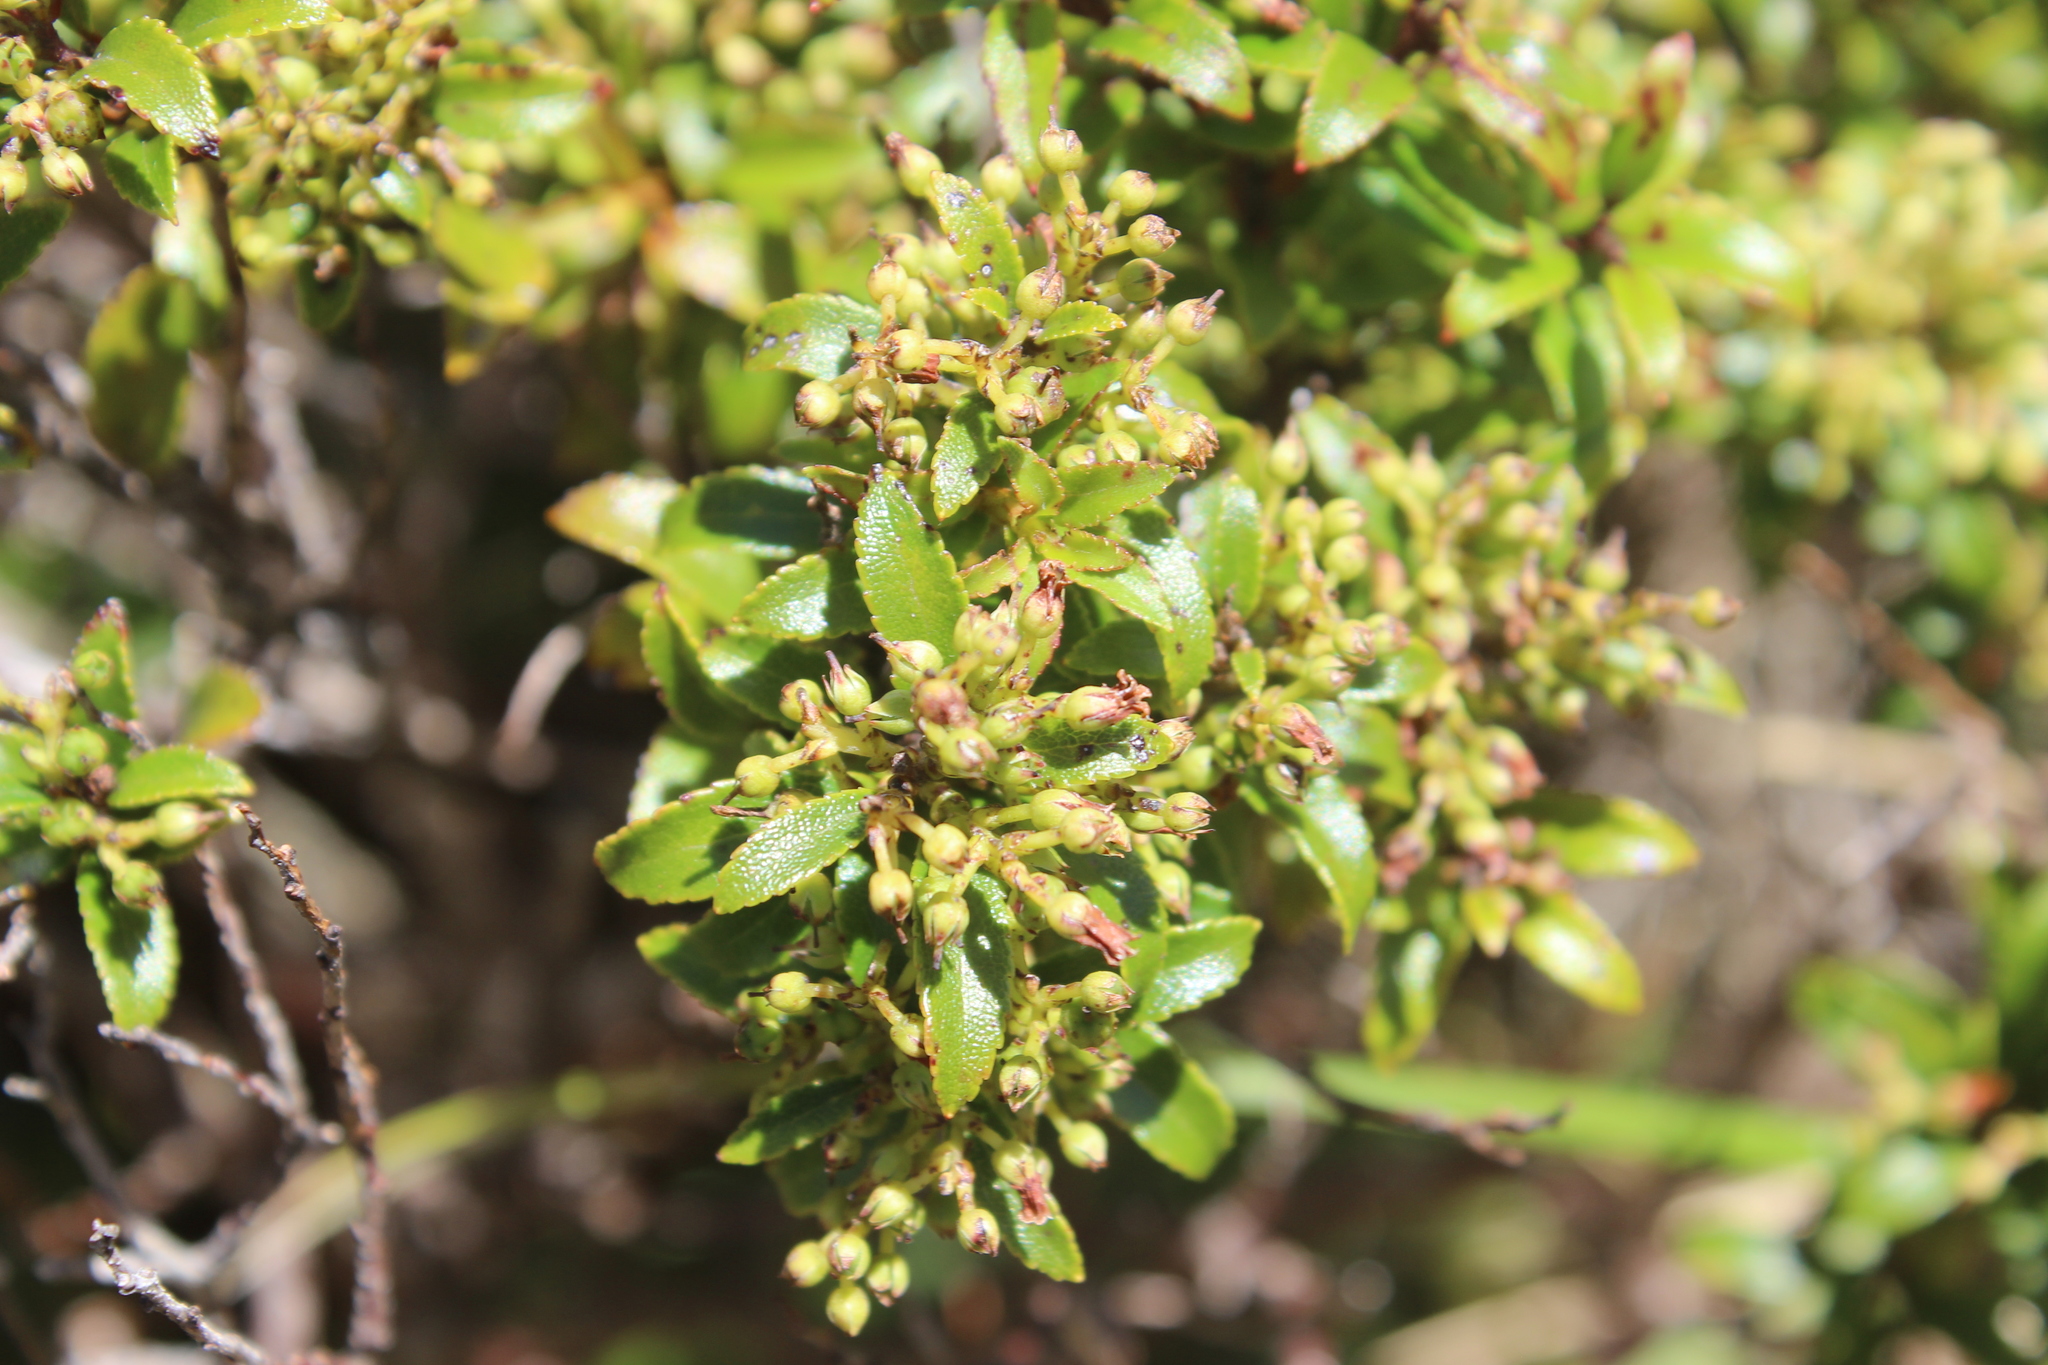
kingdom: Plantae
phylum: Tracheophyta
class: Magnoliopsida
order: Ericales
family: Ericaceae
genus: Gaultheria
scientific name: Gaultheria rupestris
